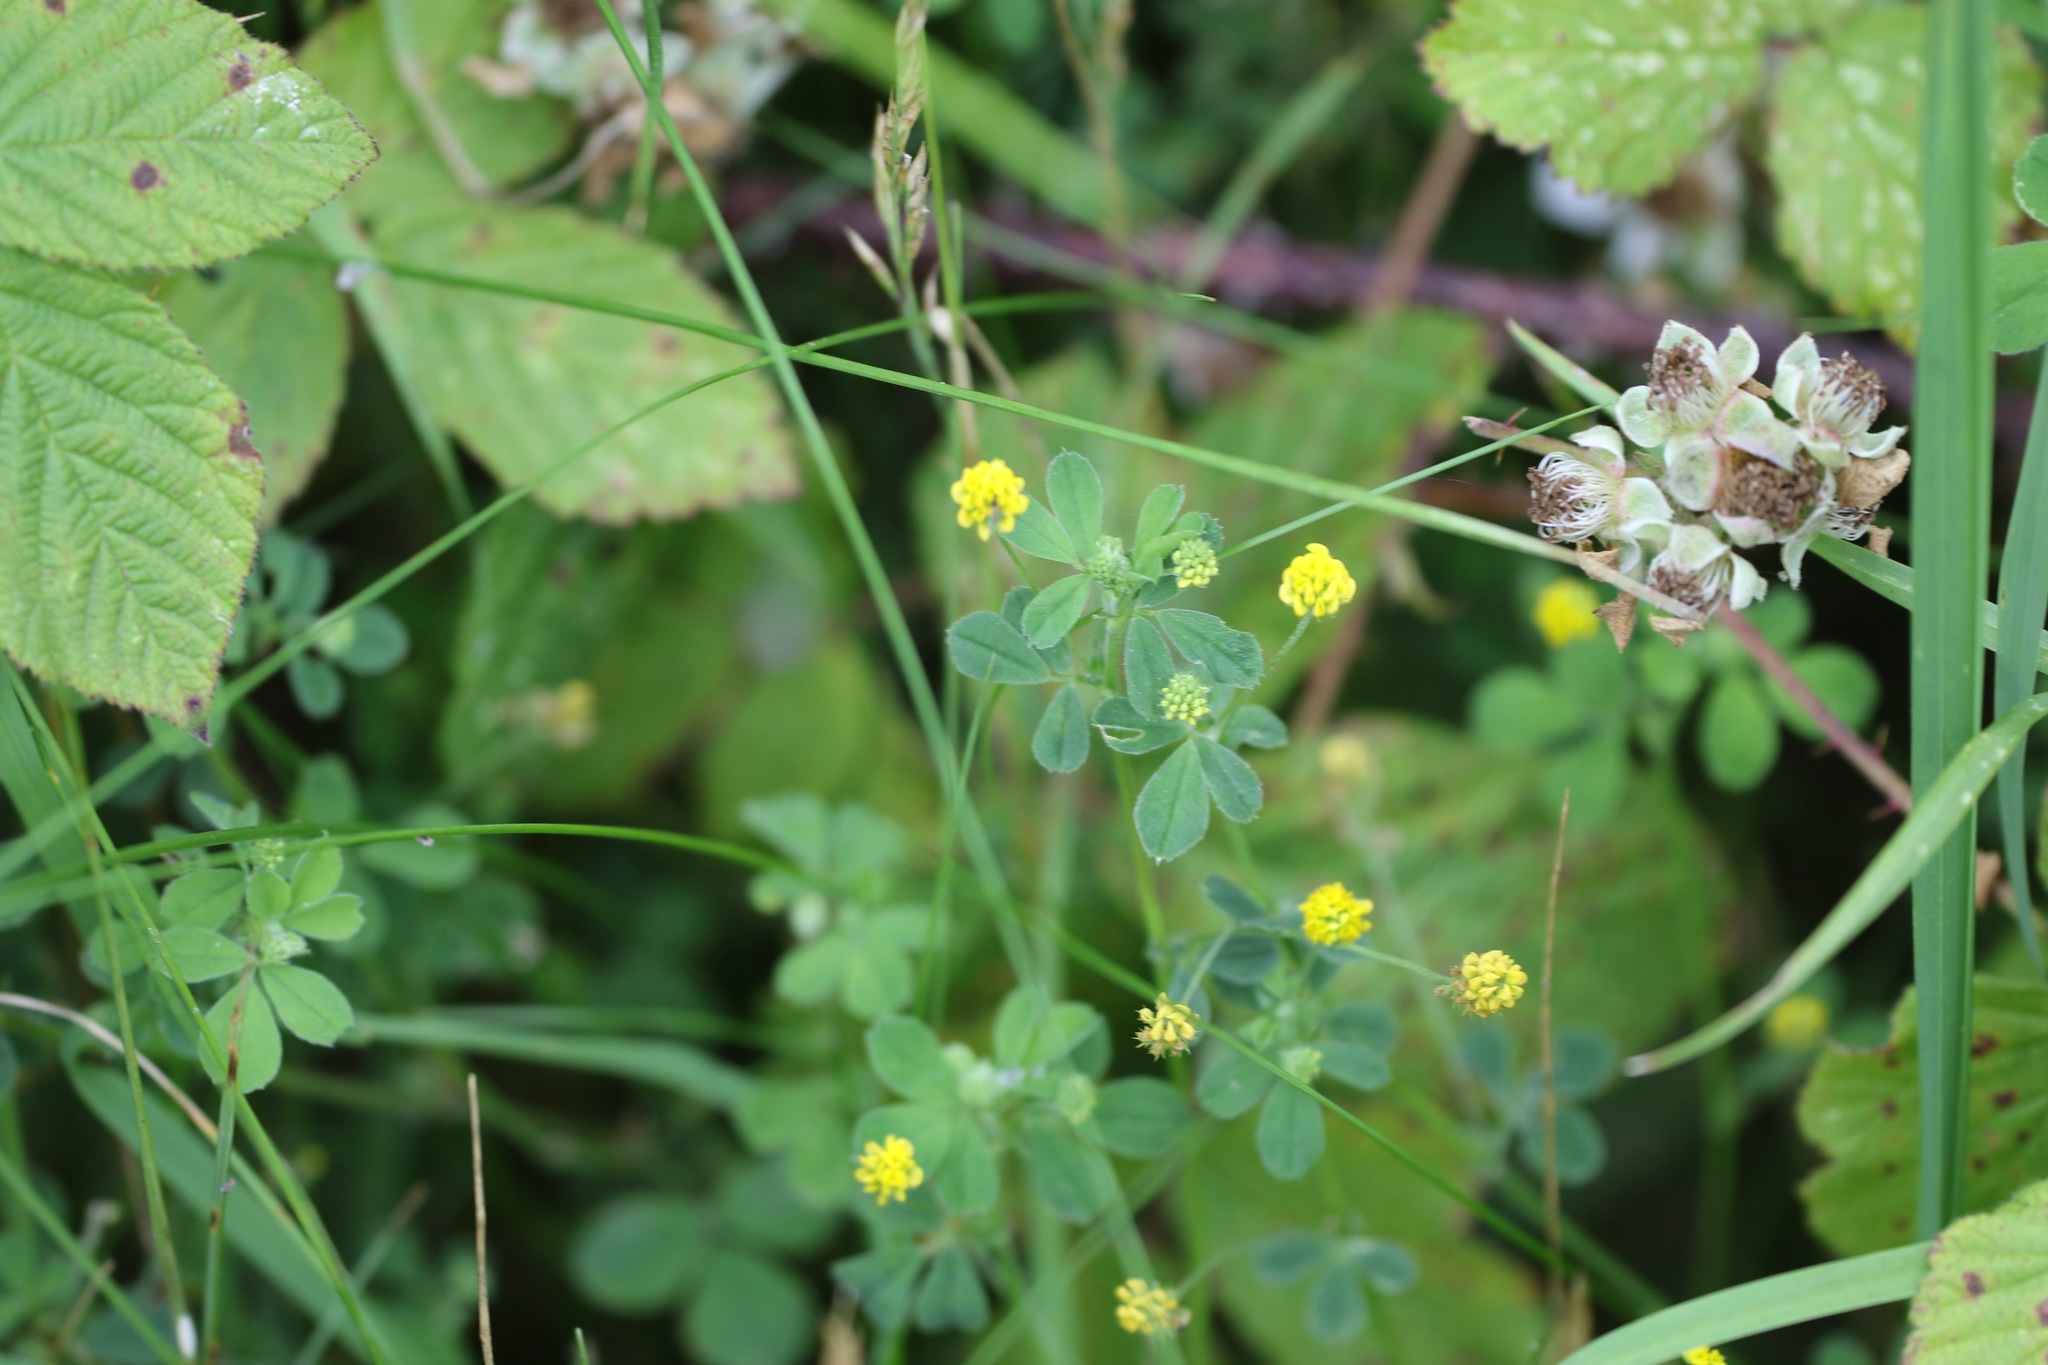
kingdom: Plantae
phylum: Tracheophyta
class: Magnoliopsida
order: Fabales
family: Fabaceae
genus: Medicago
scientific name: Medicago lupulina
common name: Black medick
